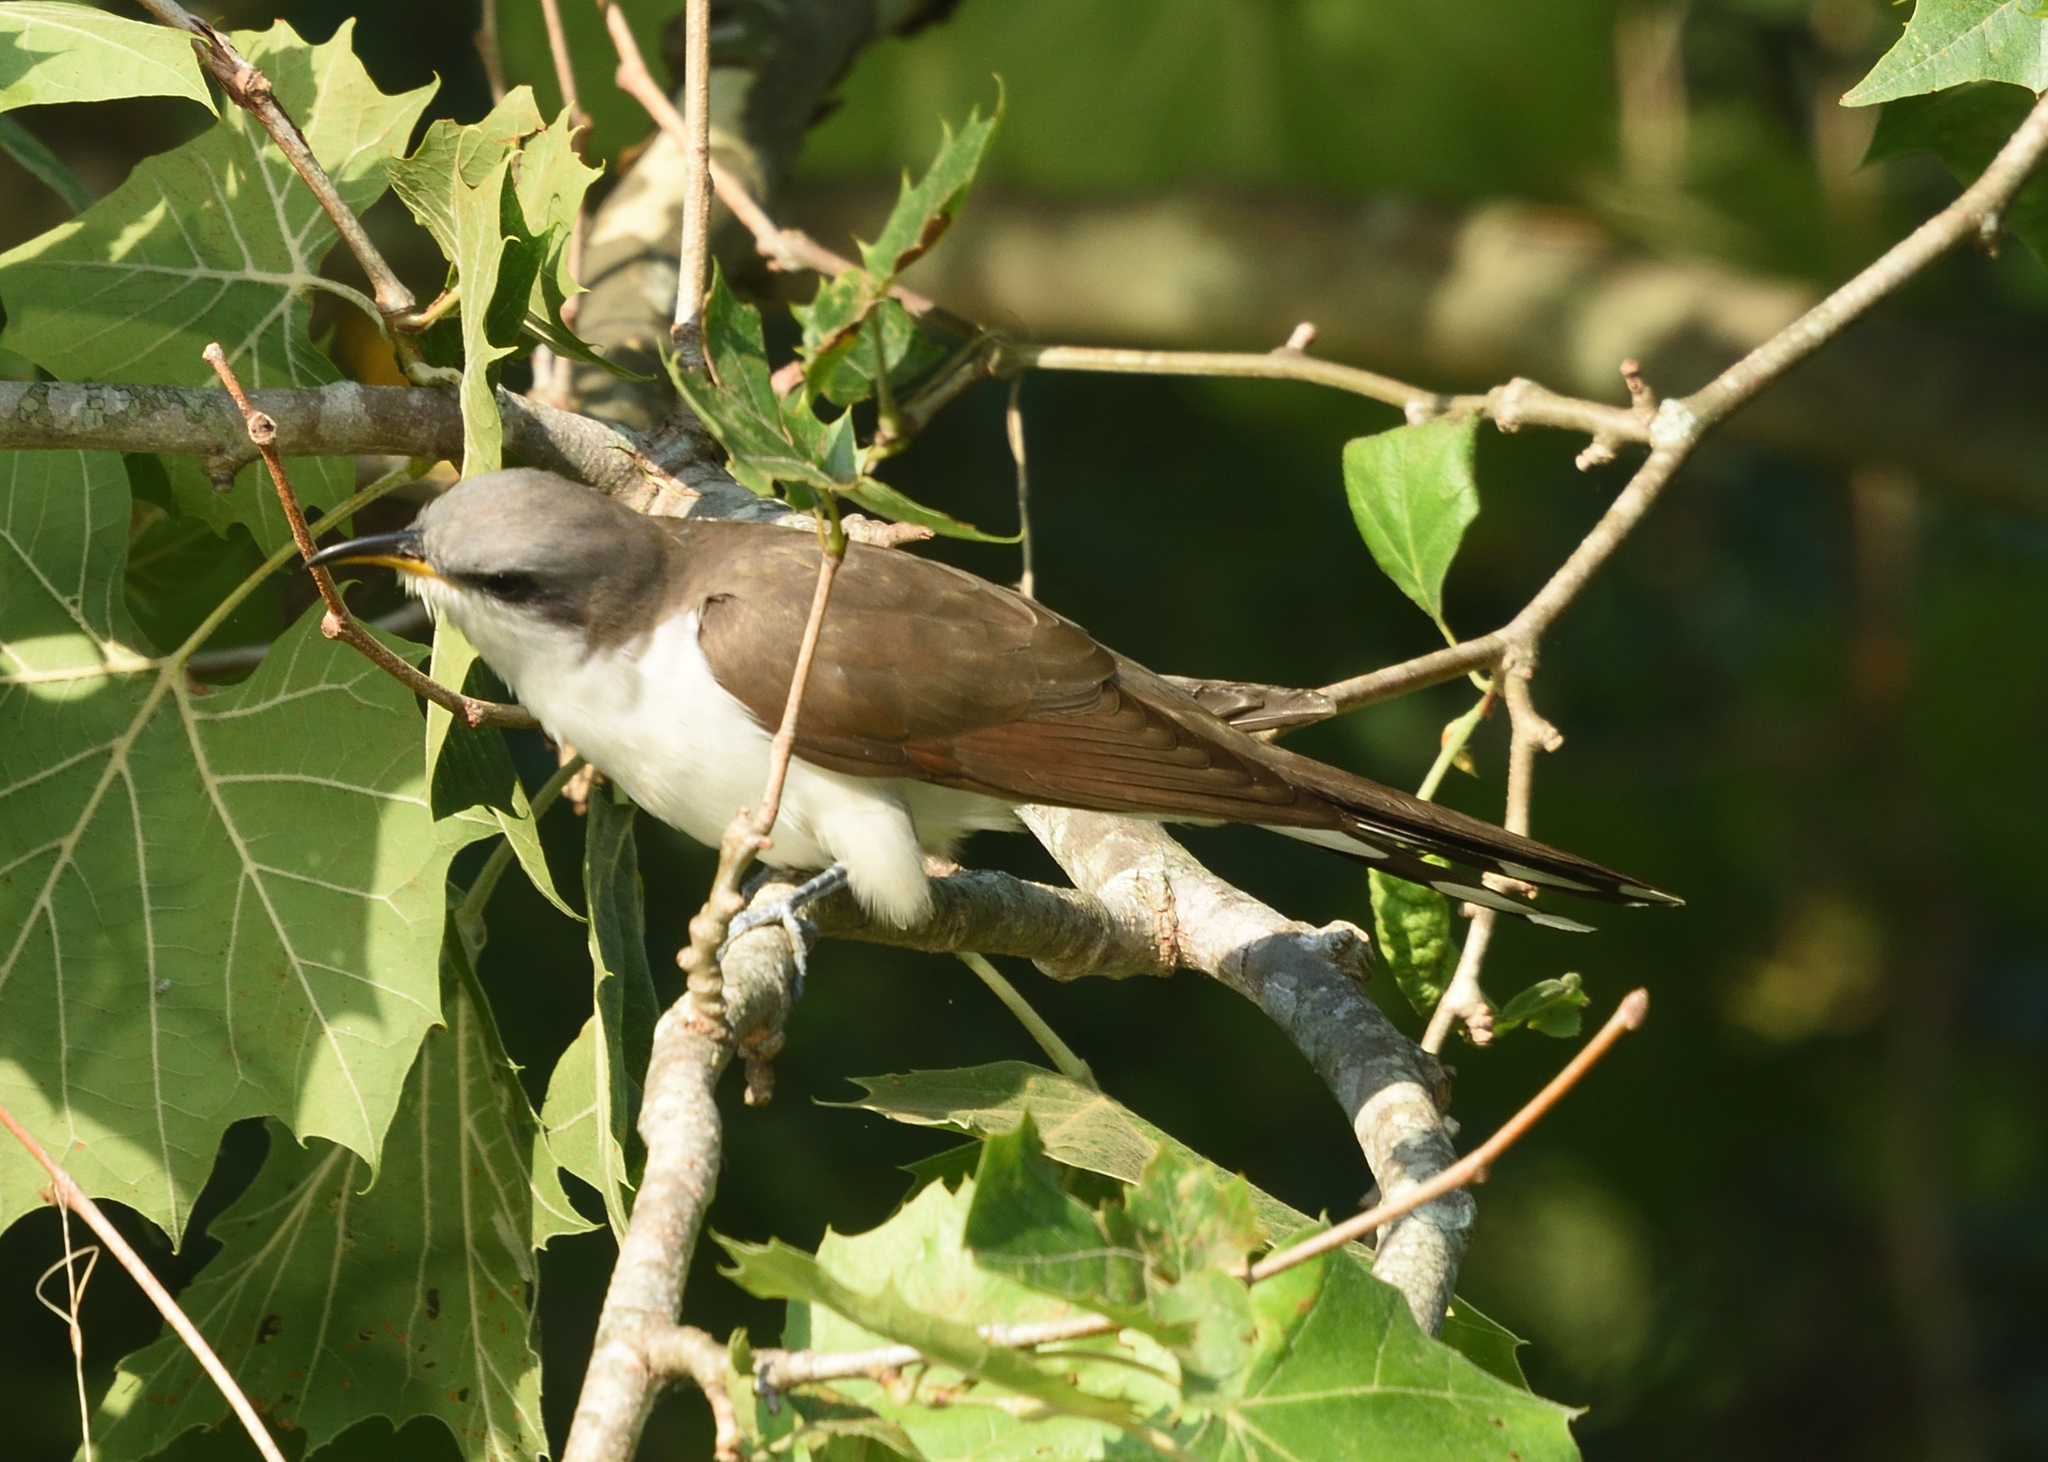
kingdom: Animalia
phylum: Chordata
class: Aves
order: Cuculiformes
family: Cuculidae
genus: Coccyzus
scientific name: Coccyzus americanus
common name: Yellow-billed cuckoo
